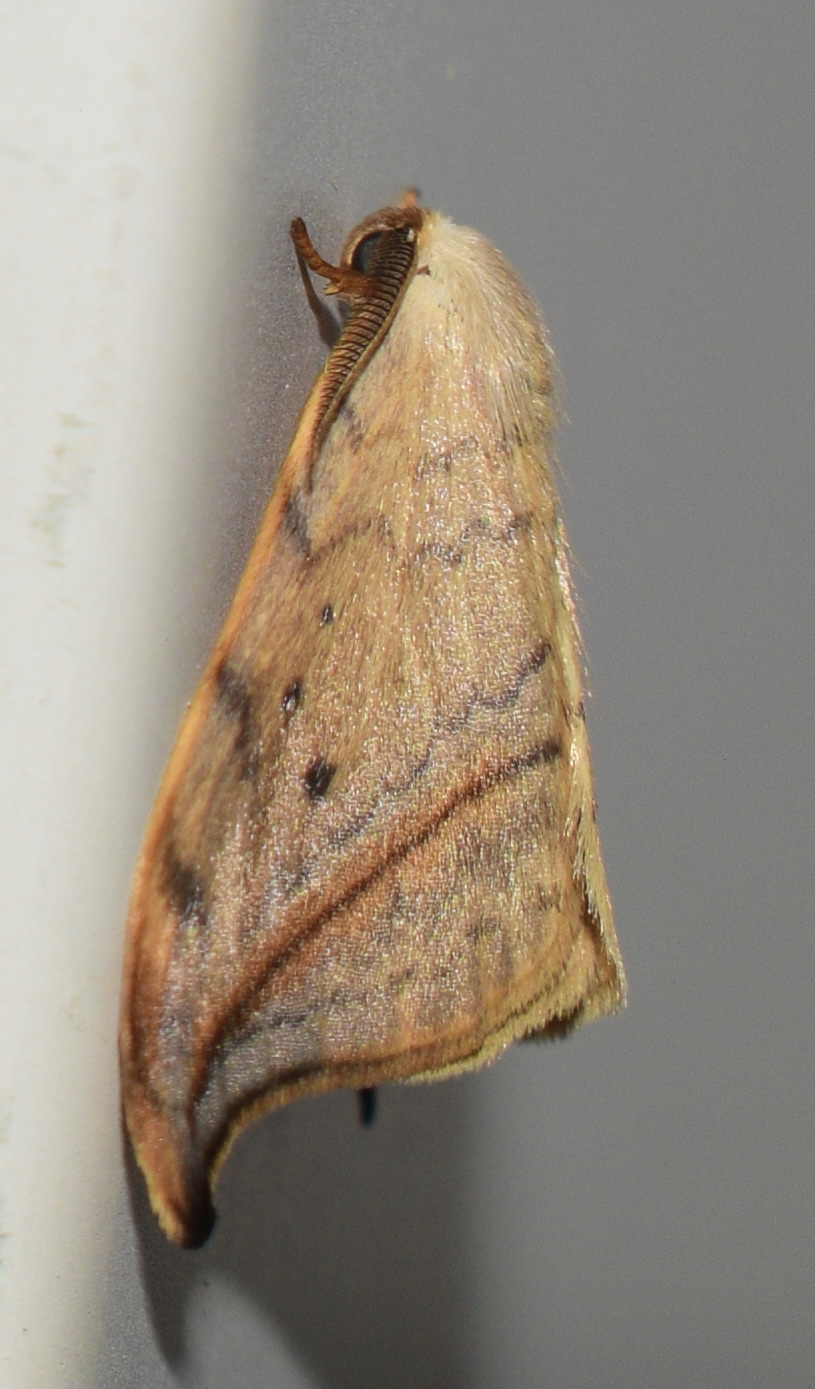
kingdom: Animalia
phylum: Arthropoda
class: Insecta
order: Lepidoptera
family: Drepanidae
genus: Drepana
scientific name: Drepana arcuata
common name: Arched hooktip moth
